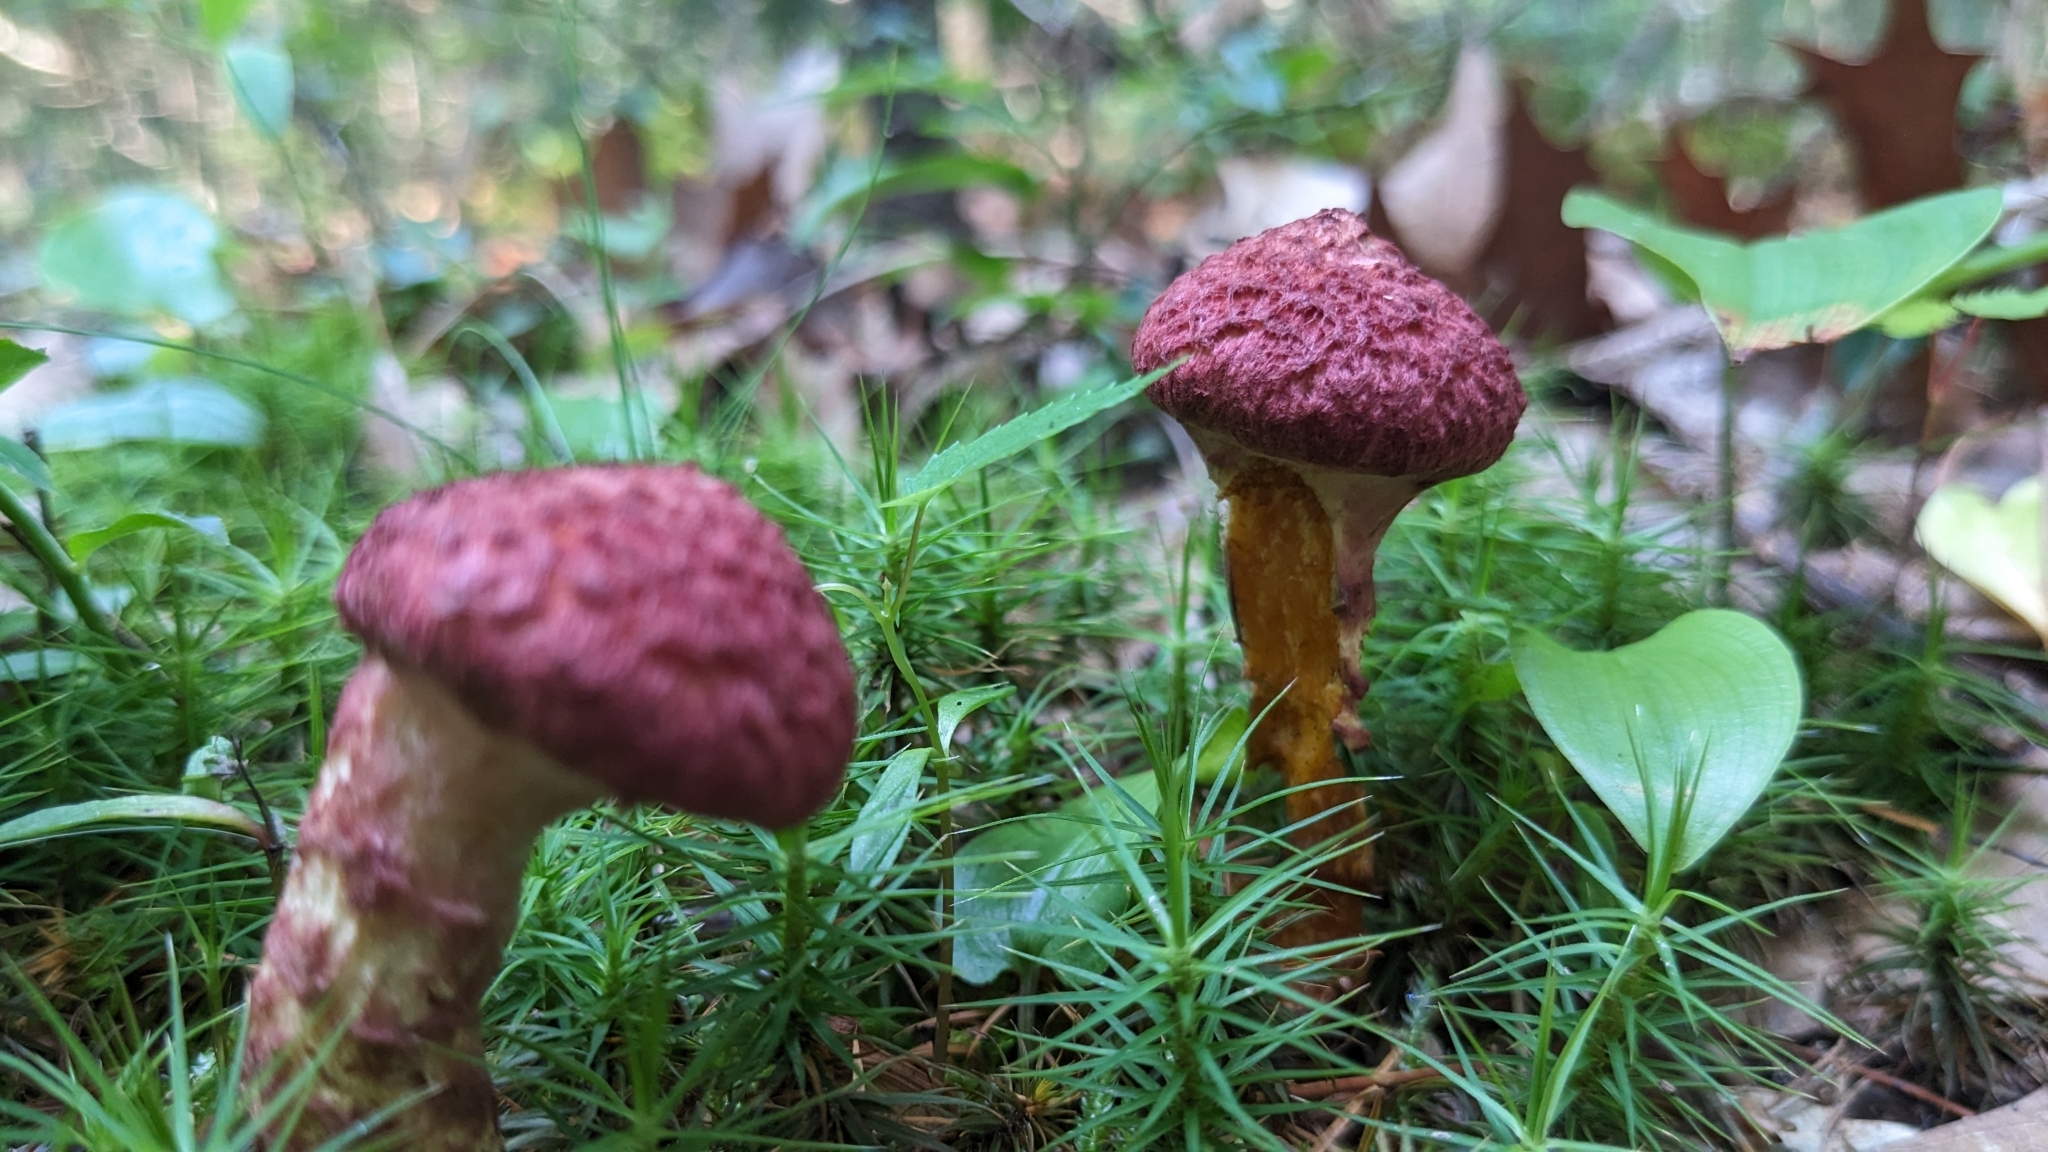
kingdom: Fungi
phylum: Basidiomycota
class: Agaricomycetes
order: Boletales
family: Suillaceae
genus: Suillus
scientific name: Suillus spraguei
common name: Painted suillus
